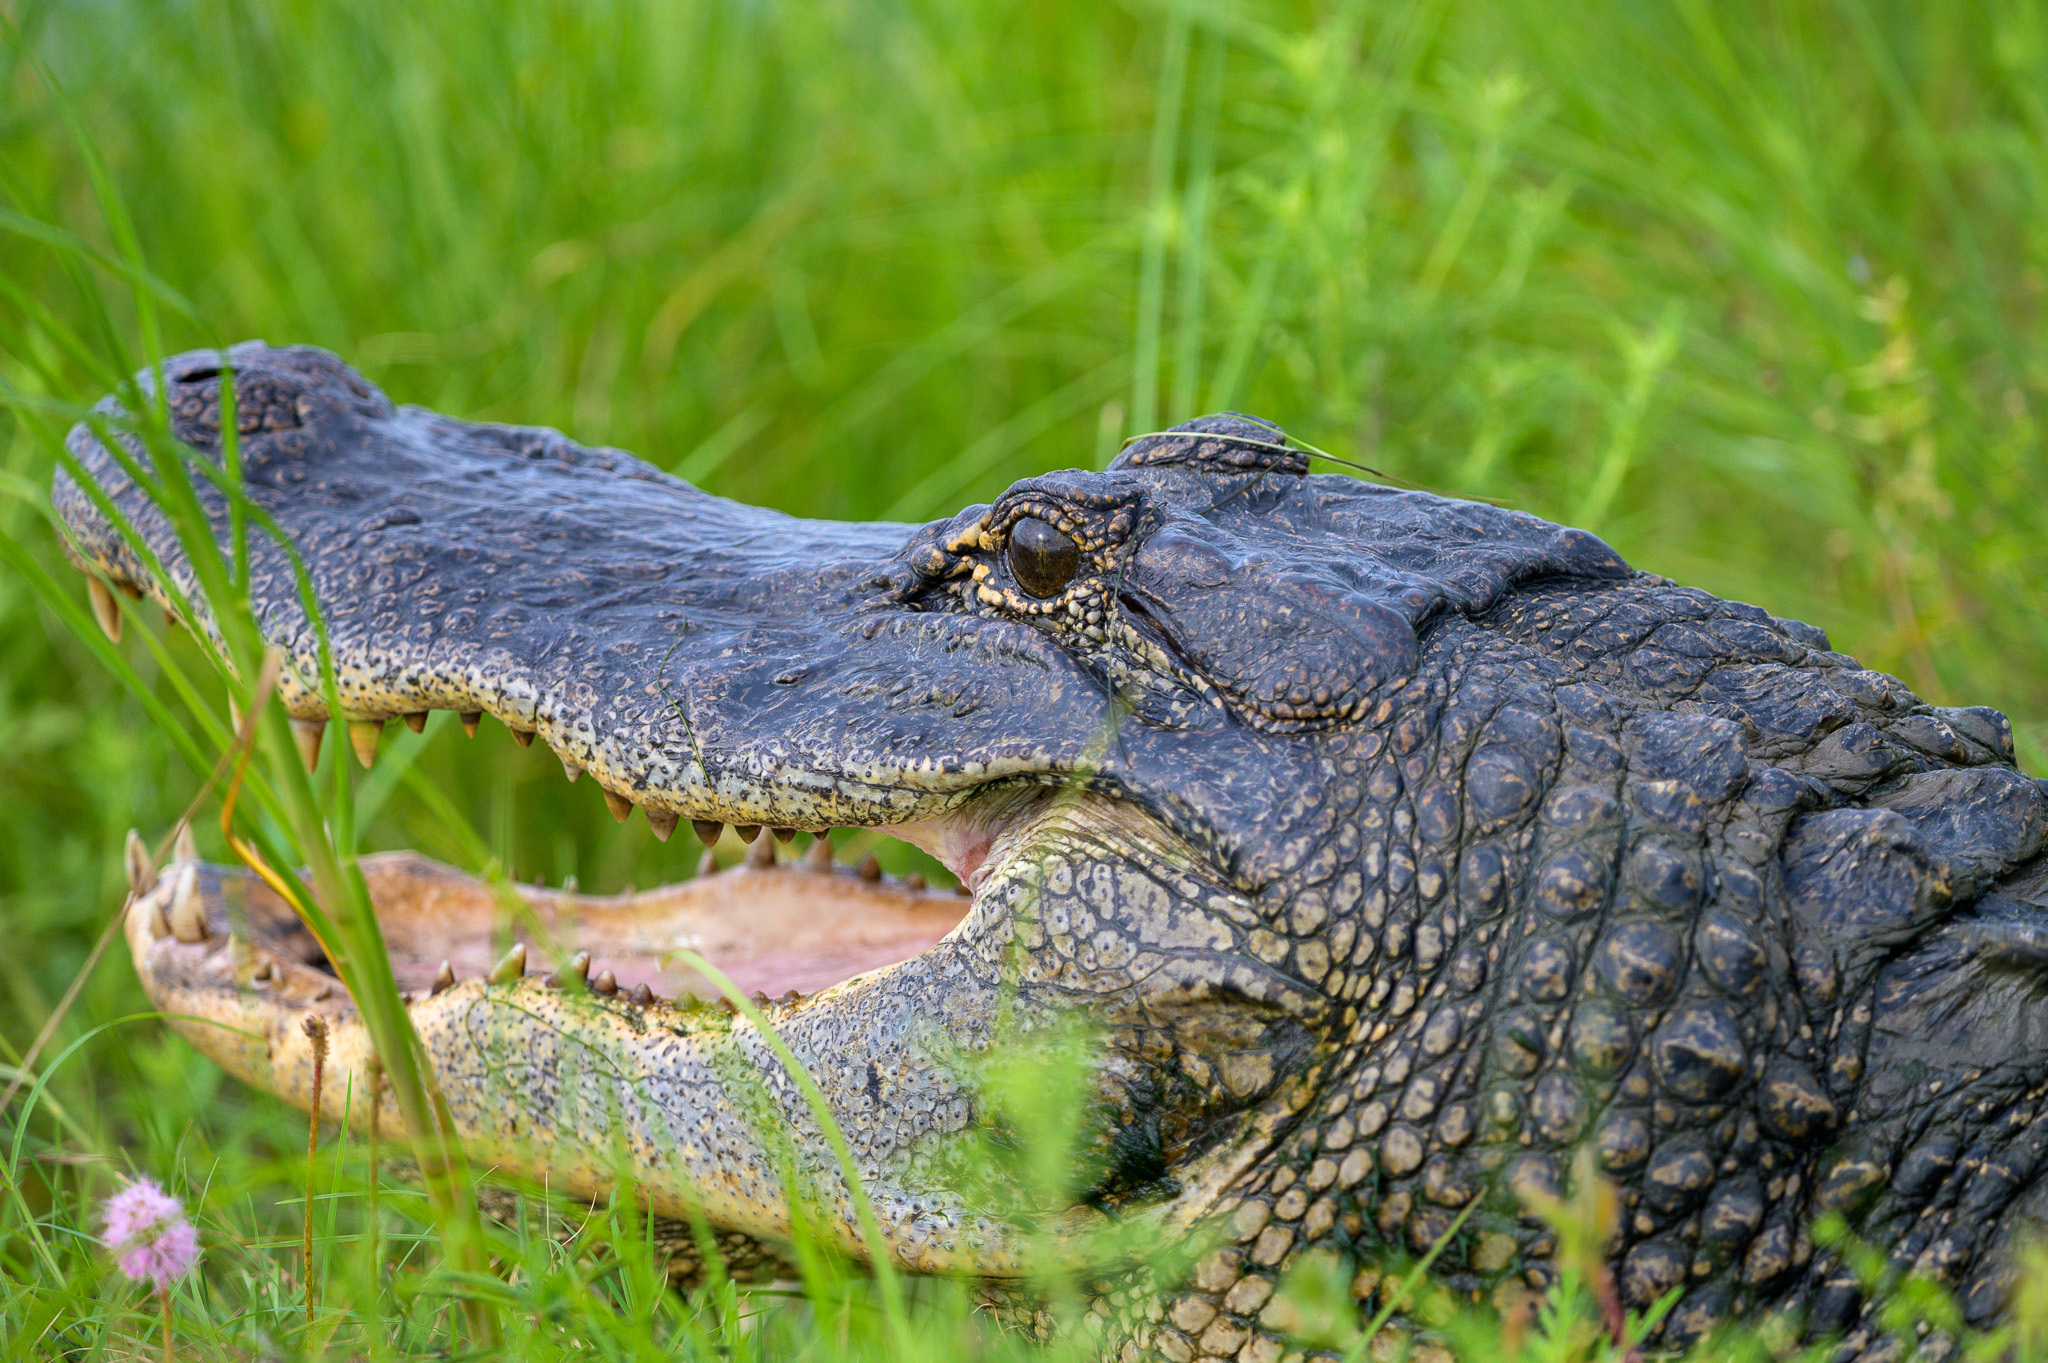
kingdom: Animalia
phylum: Chordata
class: Crocodylia
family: Alligatoridae
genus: Alligator
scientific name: Alligator mississippiensis
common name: American alligator
